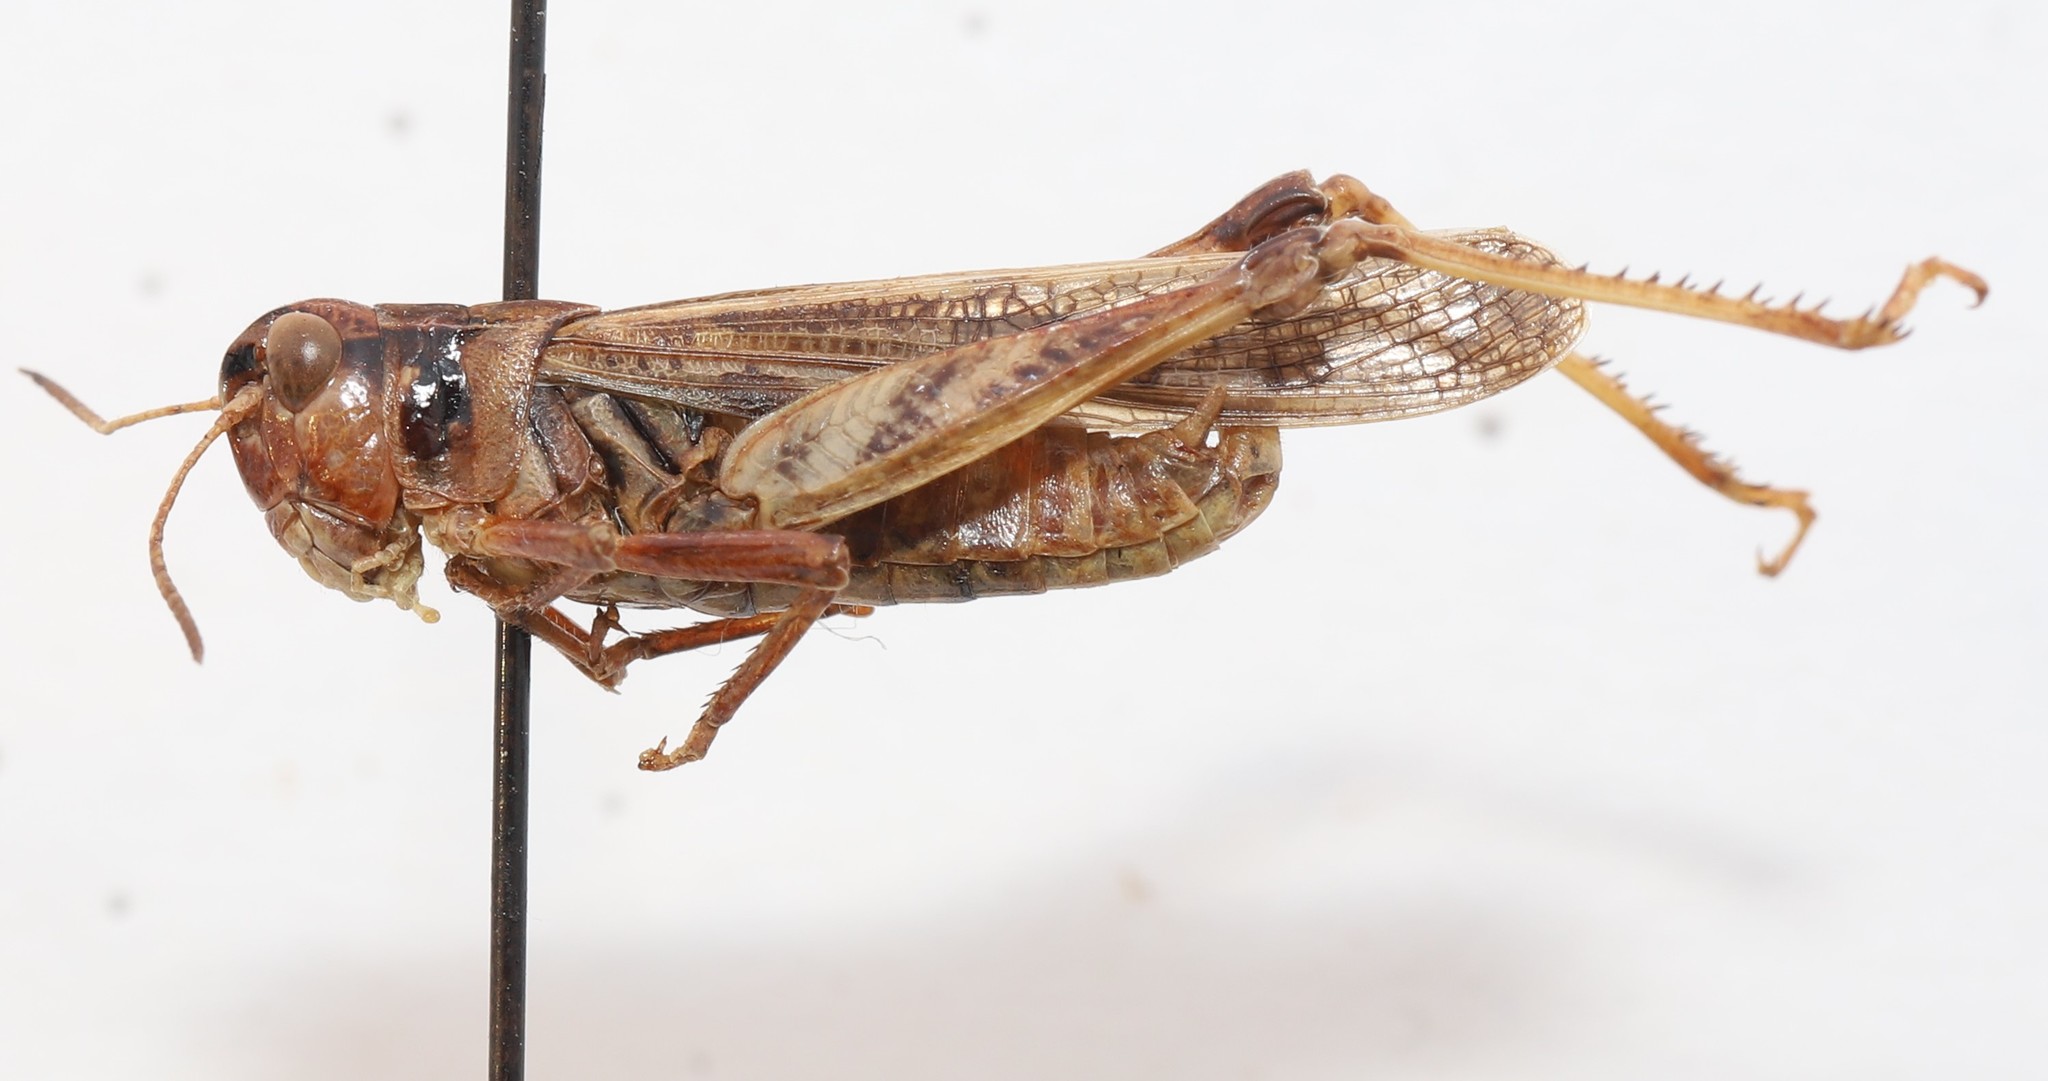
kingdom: Animalia
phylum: Arthropoda
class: Insecta
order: Orthoptera
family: Acrididae
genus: Camnula
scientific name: Camnula pellucida
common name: Clear-winged grasshopper
